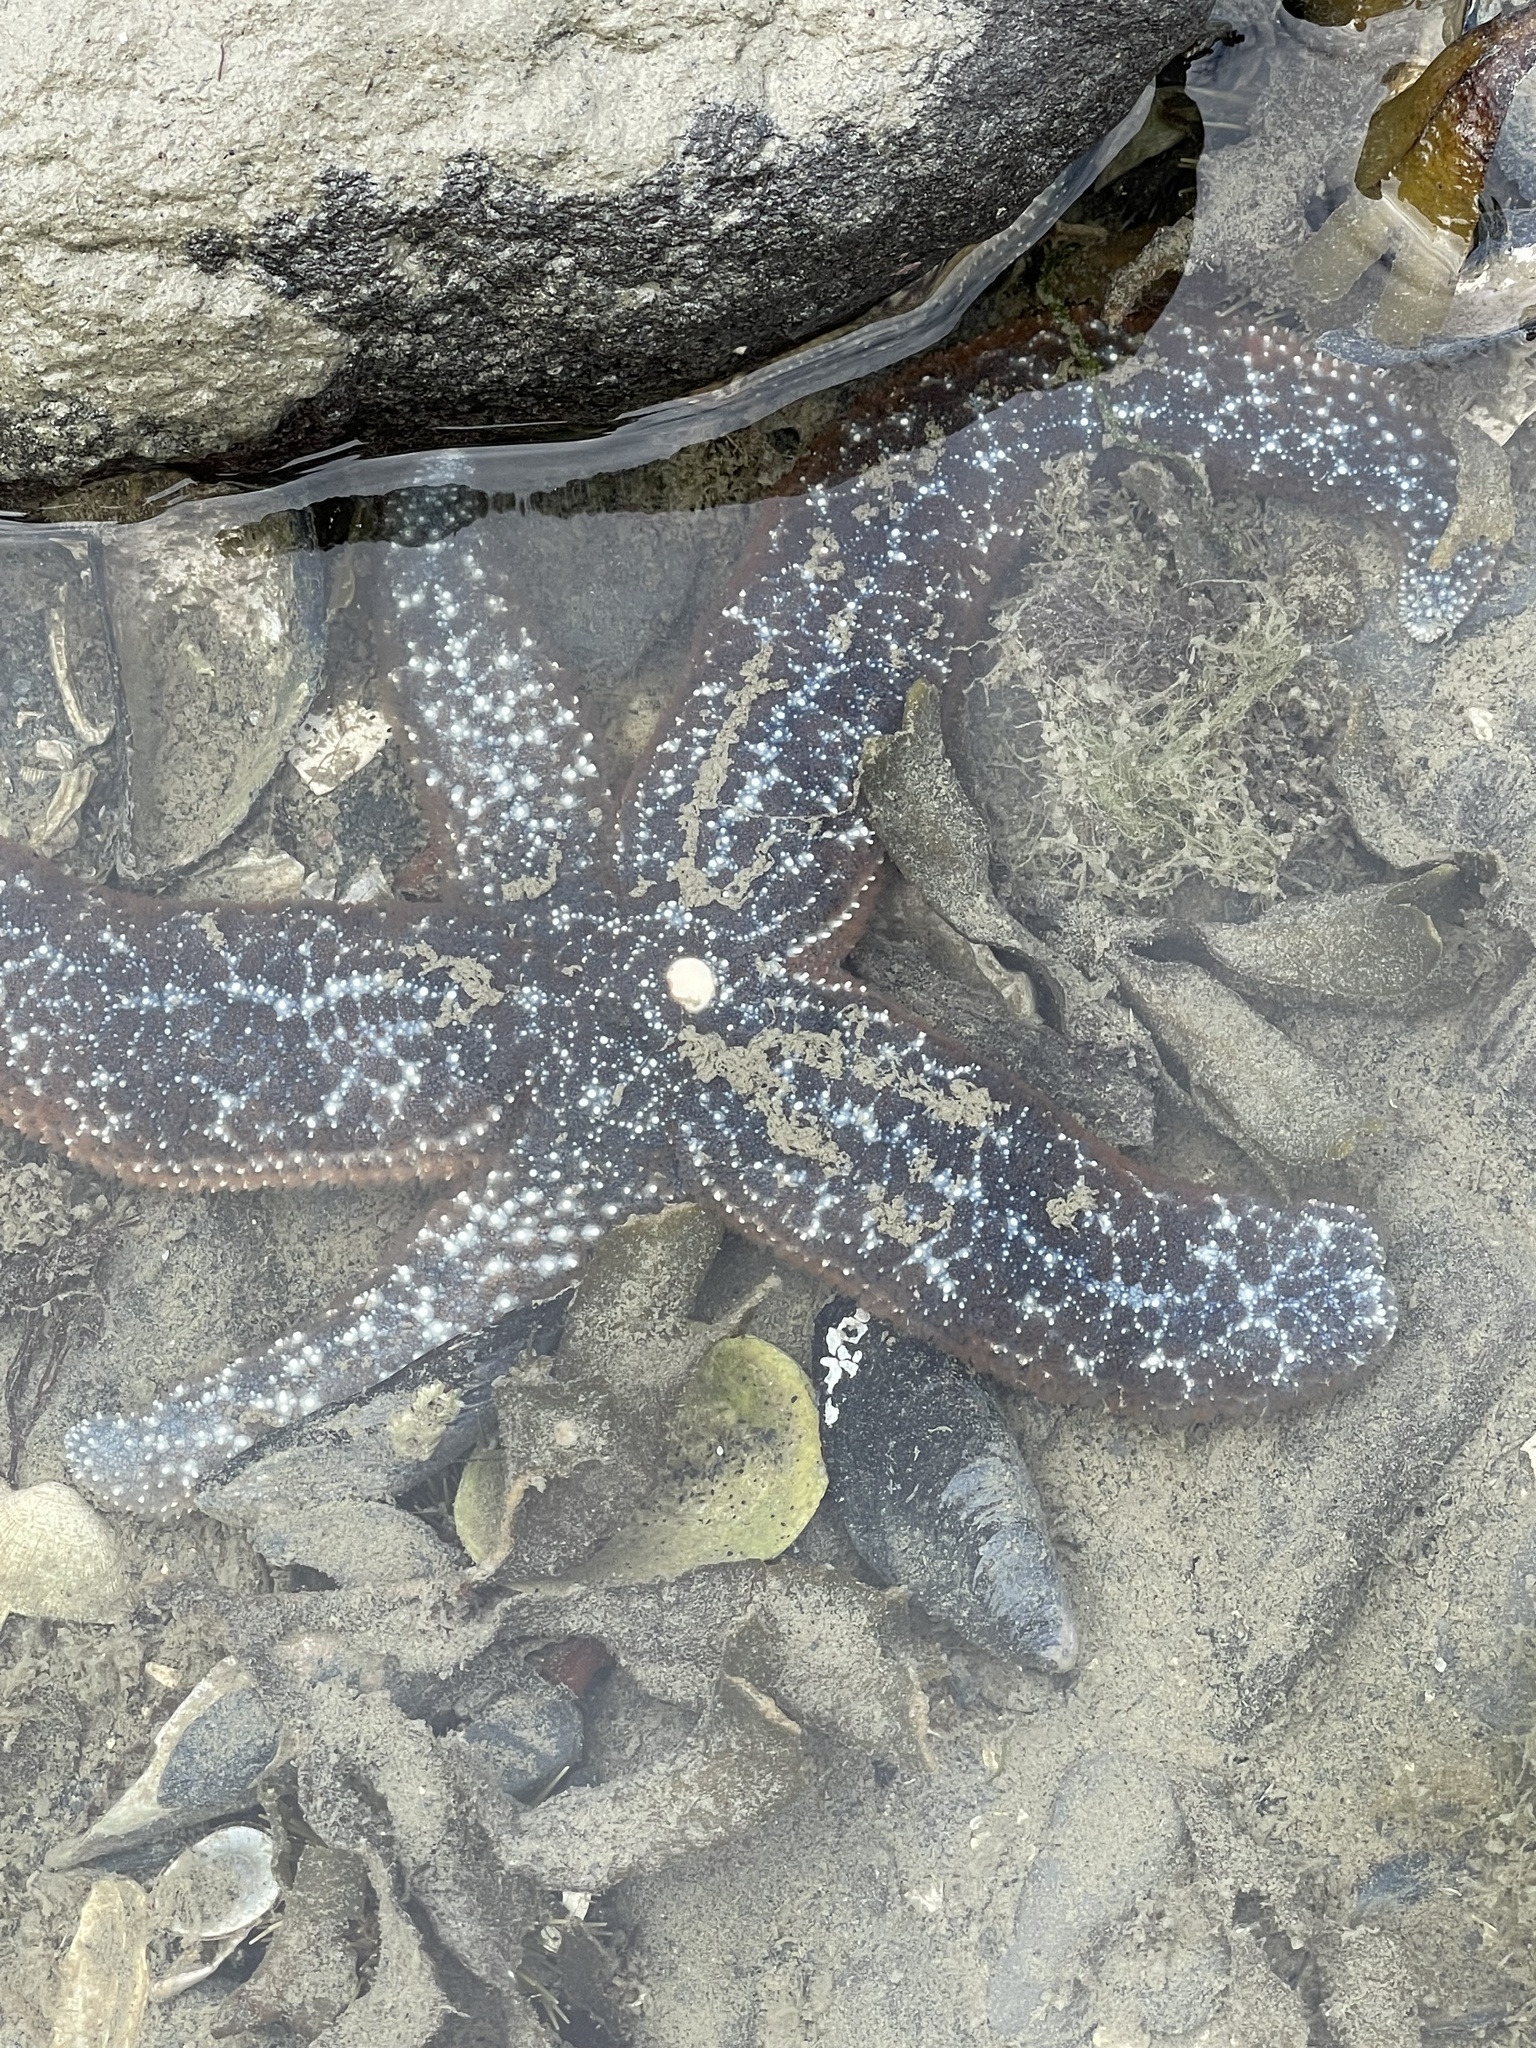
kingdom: Animalia
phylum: Echinodermata
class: Asteroidea
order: Forcipulatida
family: Asteriidae
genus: Evasterias
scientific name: Evasterias troschelii
